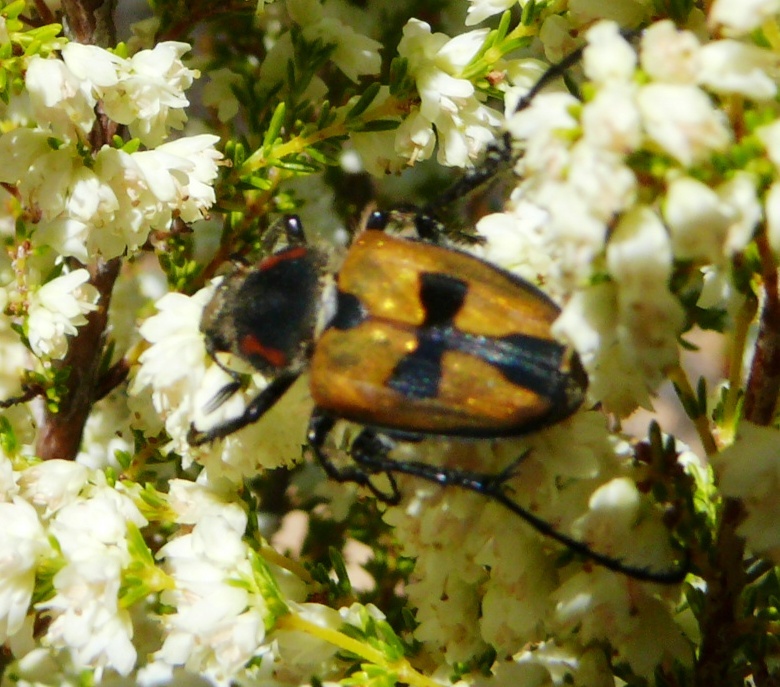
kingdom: Animalia
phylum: Arthropoda
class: Insecta
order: Coleoptera
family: Scarabaeidae
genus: Campulipus
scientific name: Campulipus limbatus
